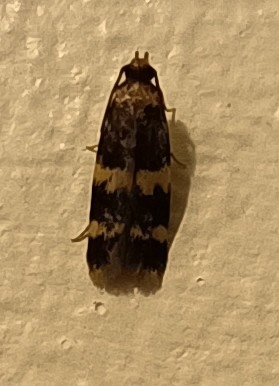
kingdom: Animalia
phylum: Arthropoda
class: Insecta
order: Lepidoptera
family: Autostichidae
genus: Oegoconia
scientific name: Oegoconia
